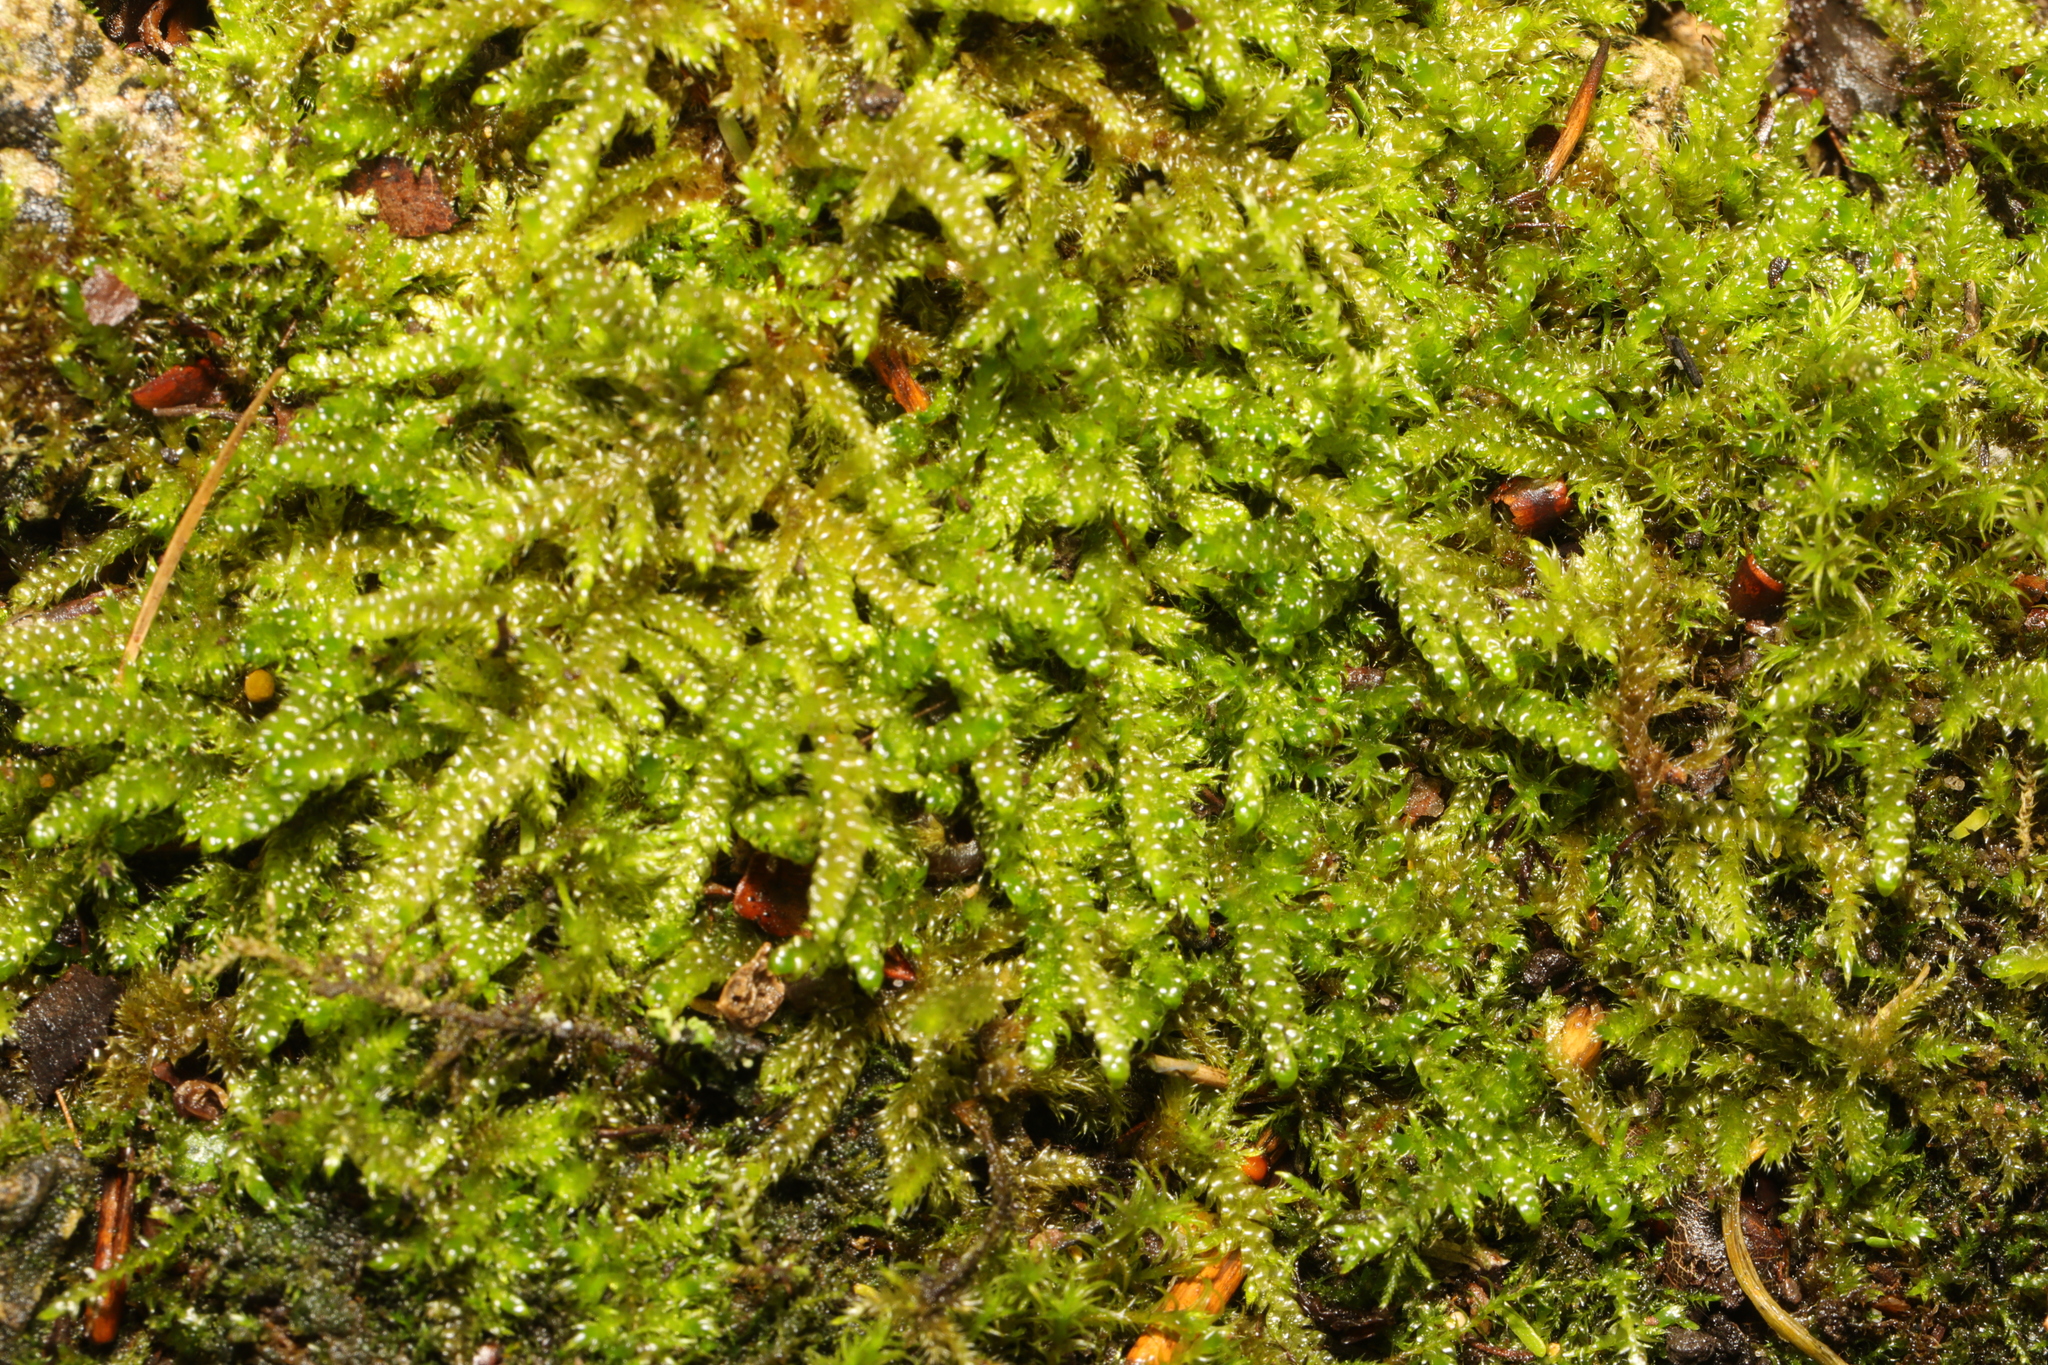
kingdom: Plantae
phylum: Bryophyta
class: Bryopsida
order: Hypnales
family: Hypnaceae
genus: Hypnum
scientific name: Hypnum cupressiforme
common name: Cypress-leaved plait-moss
